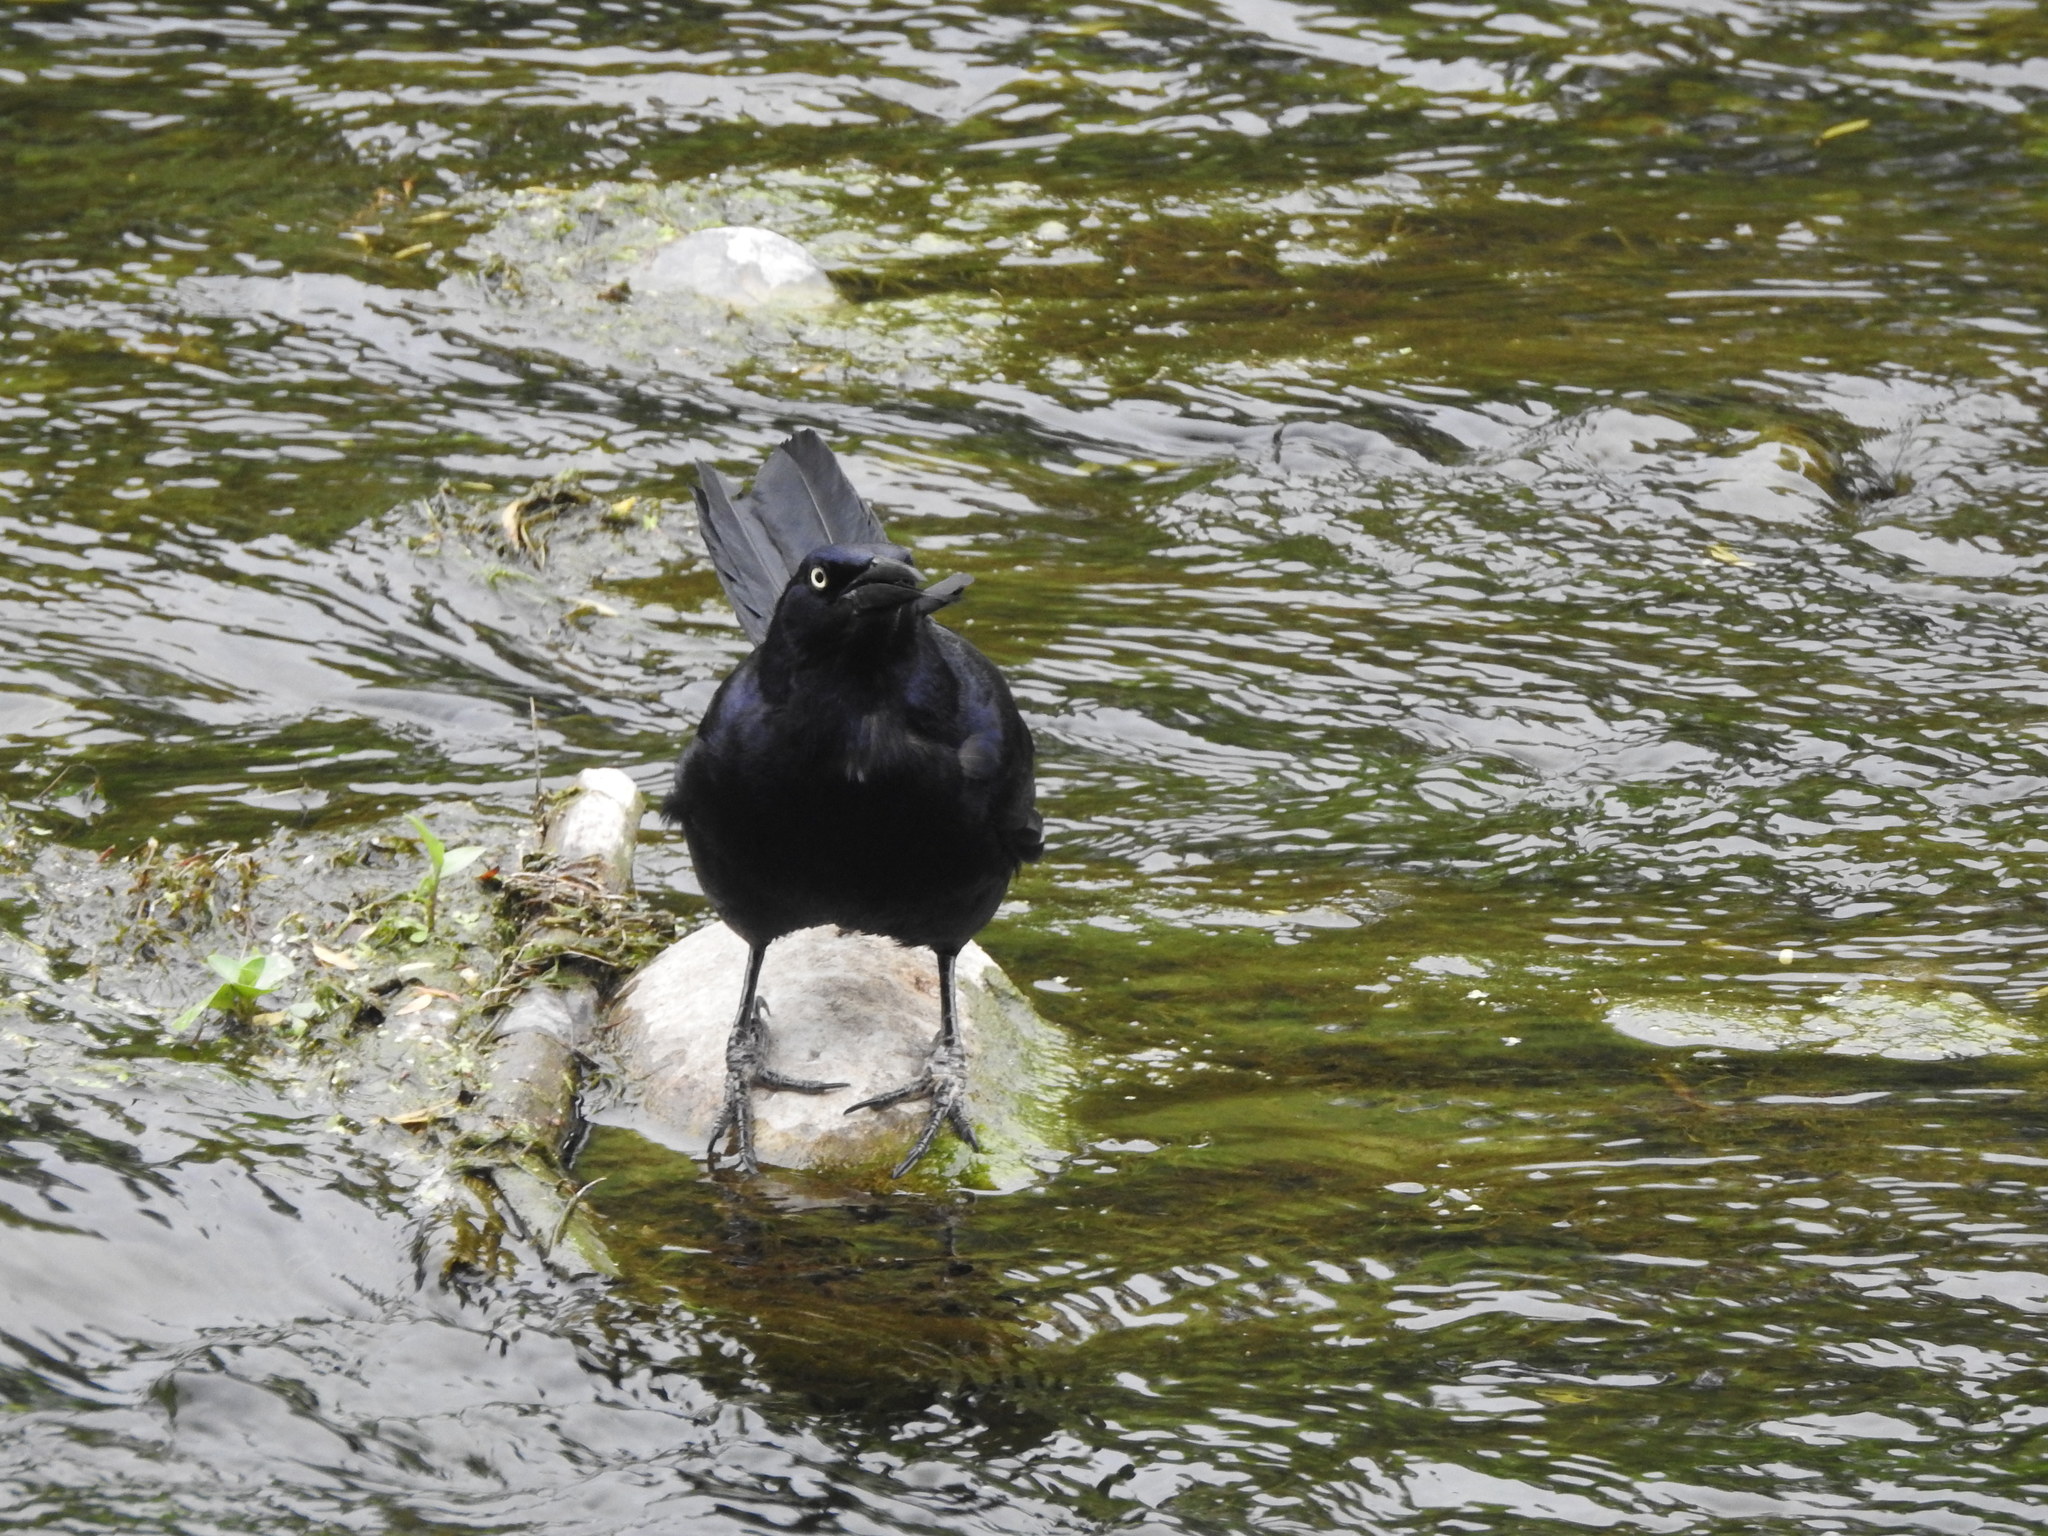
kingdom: Animalia
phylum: Chordata
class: Aves
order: Passeriformes
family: Icteridae
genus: Quiscalus
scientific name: Quiscalus mexicanus
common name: Great-tailed grackle
